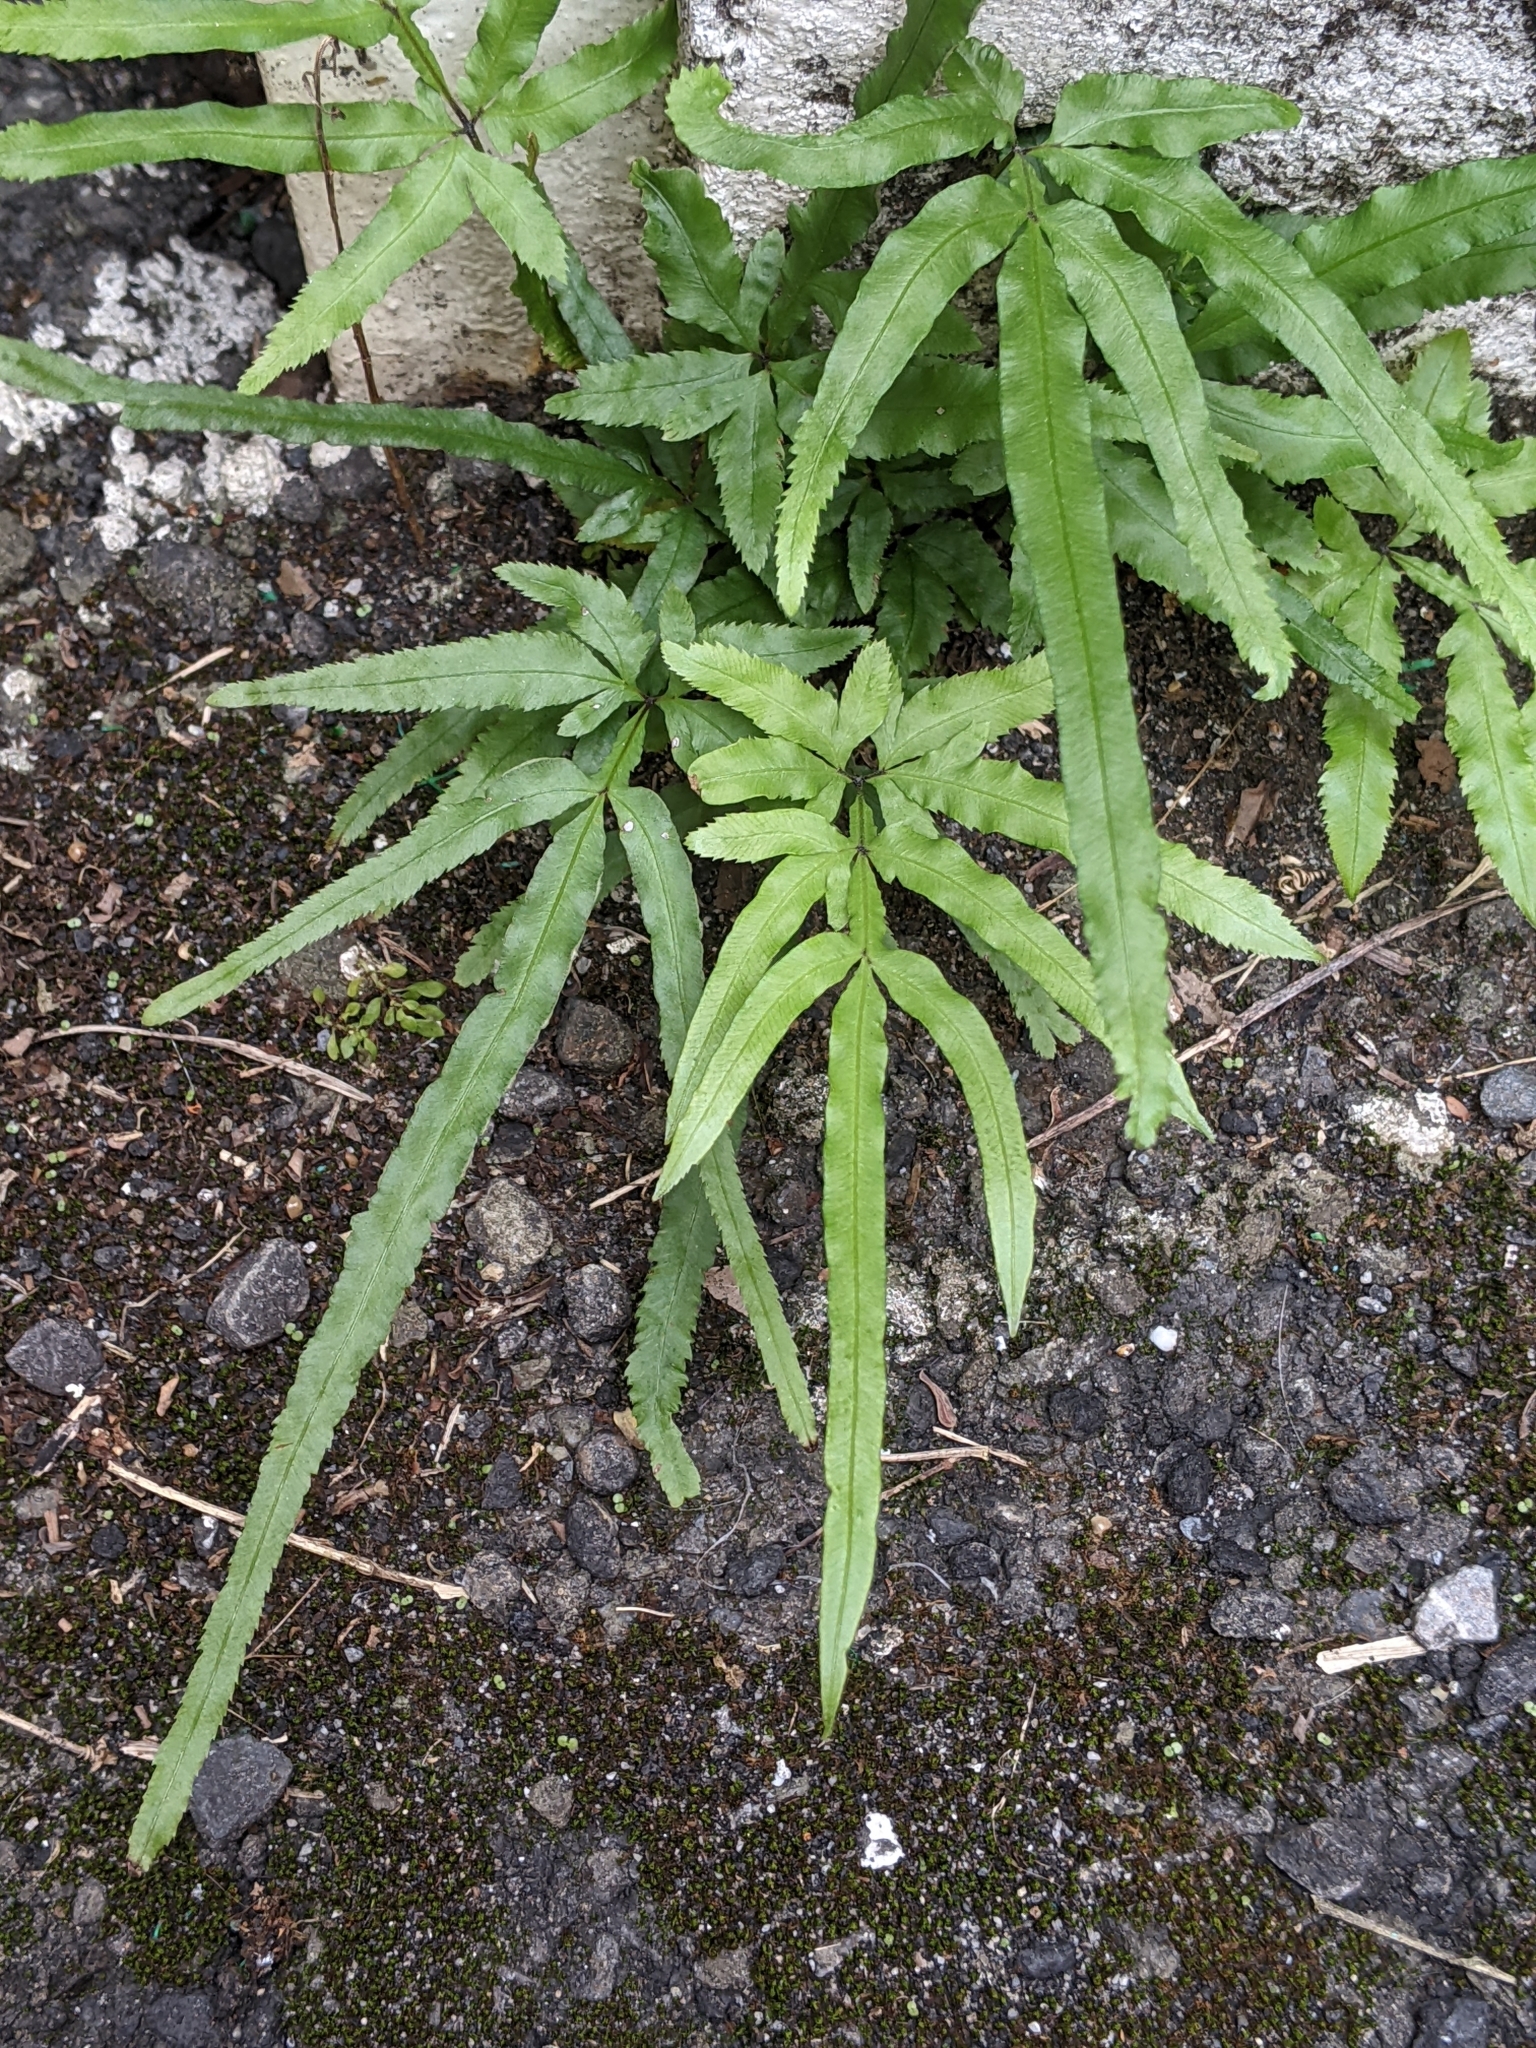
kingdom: Plantae
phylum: Tracheophyta
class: Polypodiopsida
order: Polypodiales
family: Pteridaceae
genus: Pteris
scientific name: Pteris multifida
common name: Spider brake
